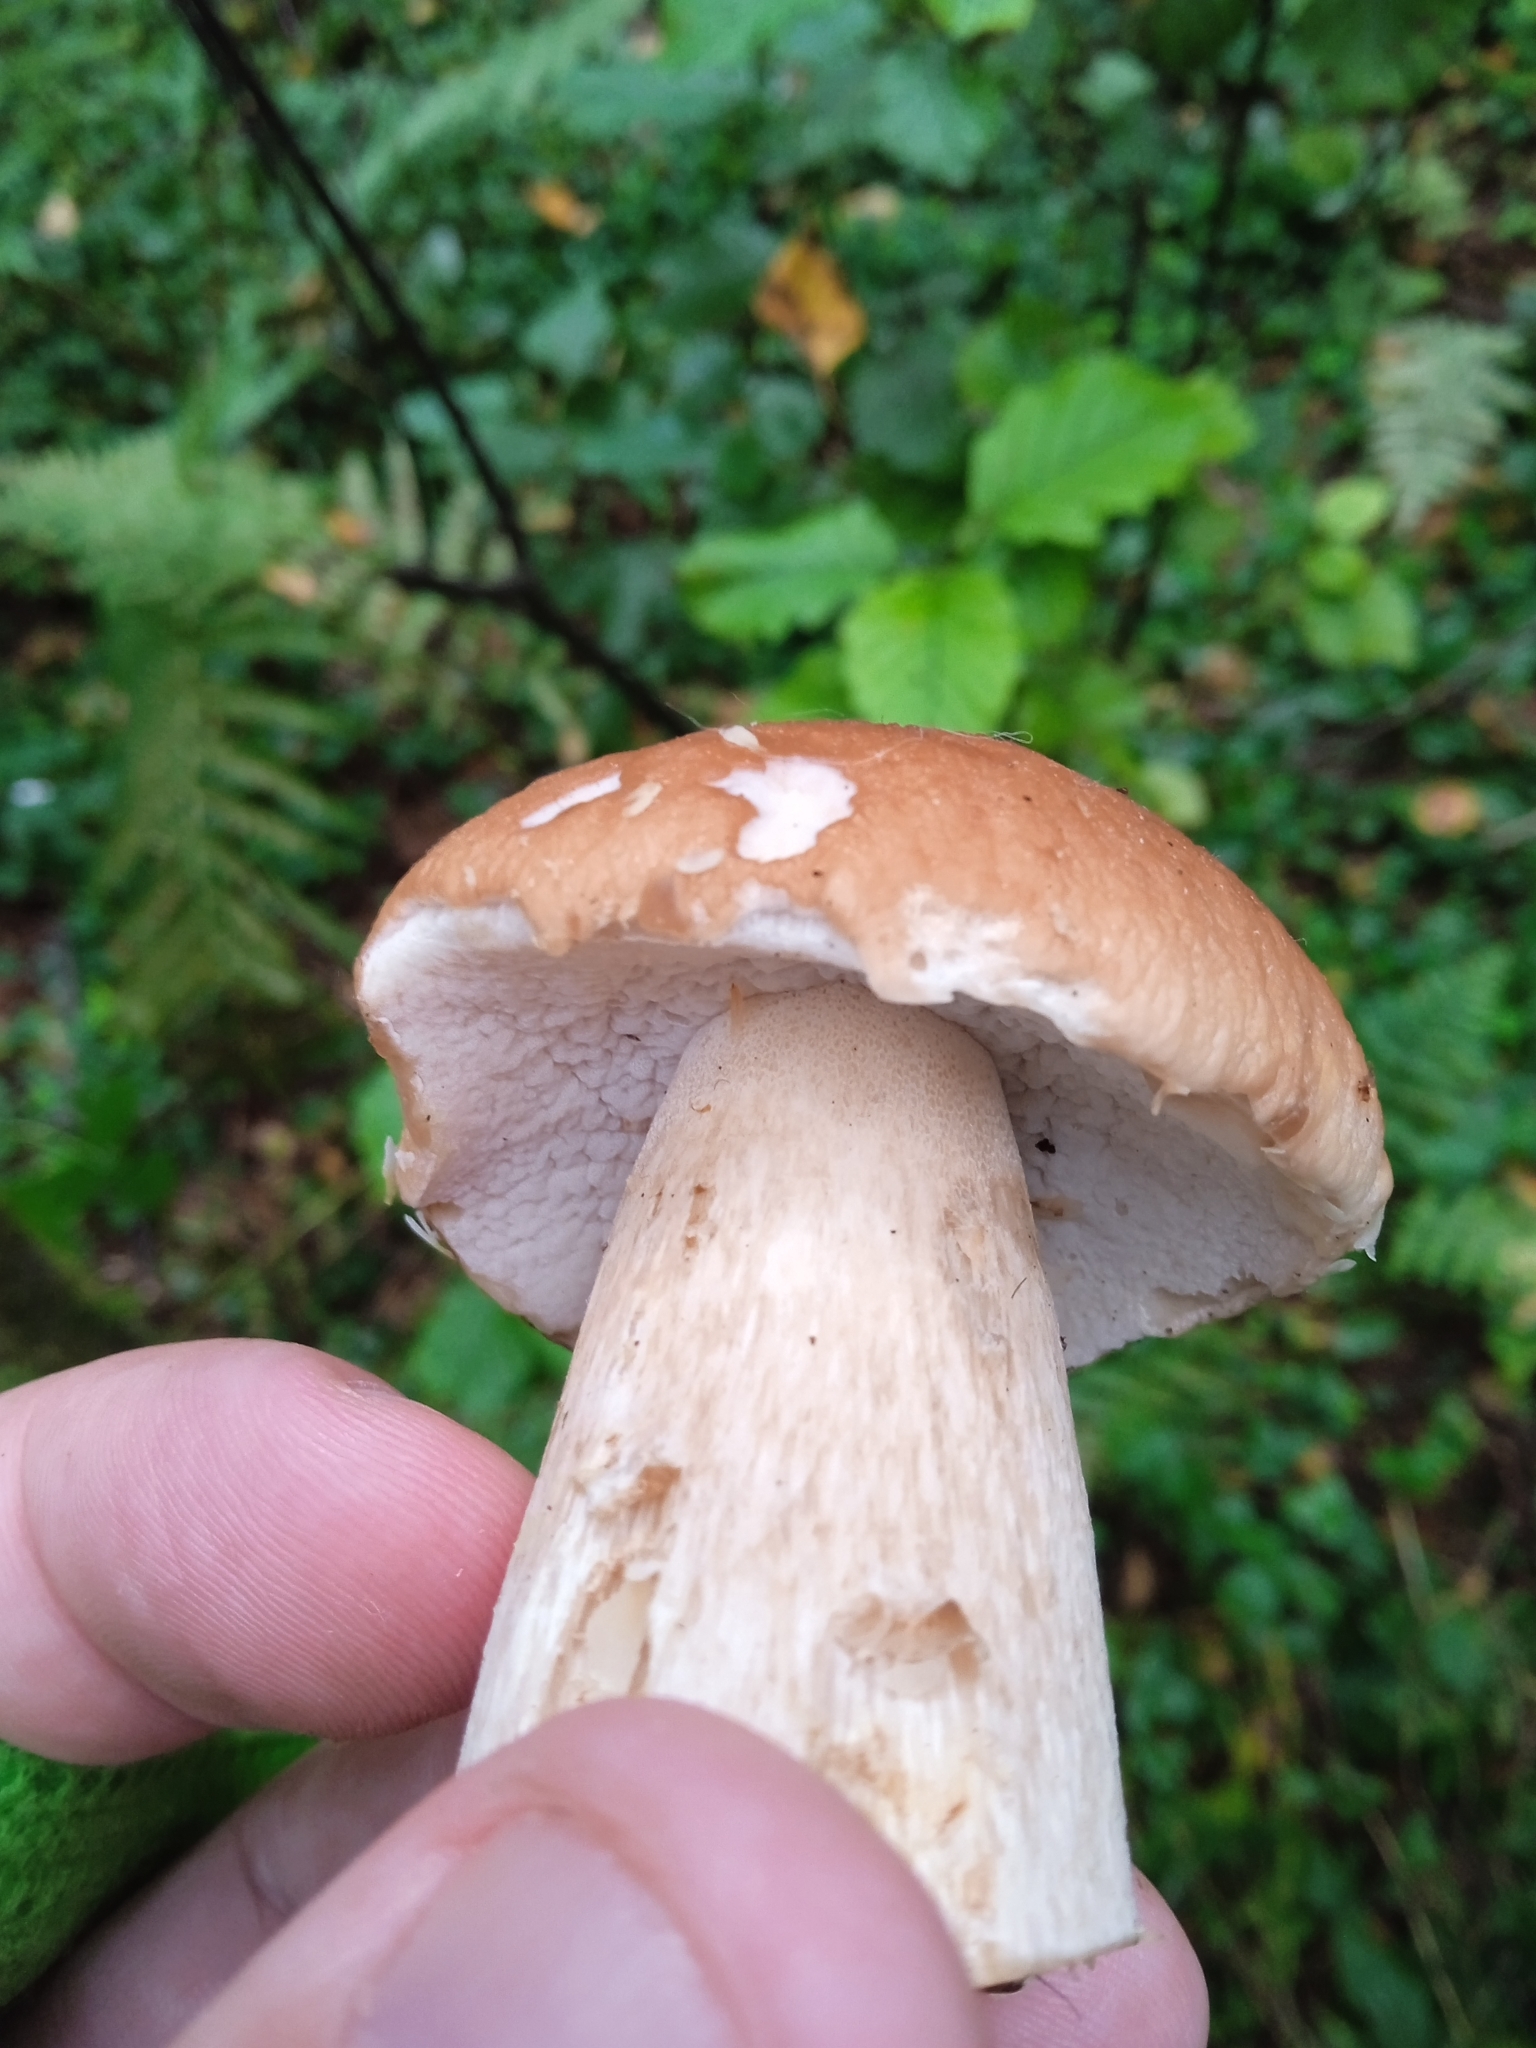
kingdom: Fungi
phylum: Basidiomycota
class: Agaricomycetes
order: Boletales
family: Boletaceae
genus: Boletus
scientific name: Boletus edulis
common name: Cep
